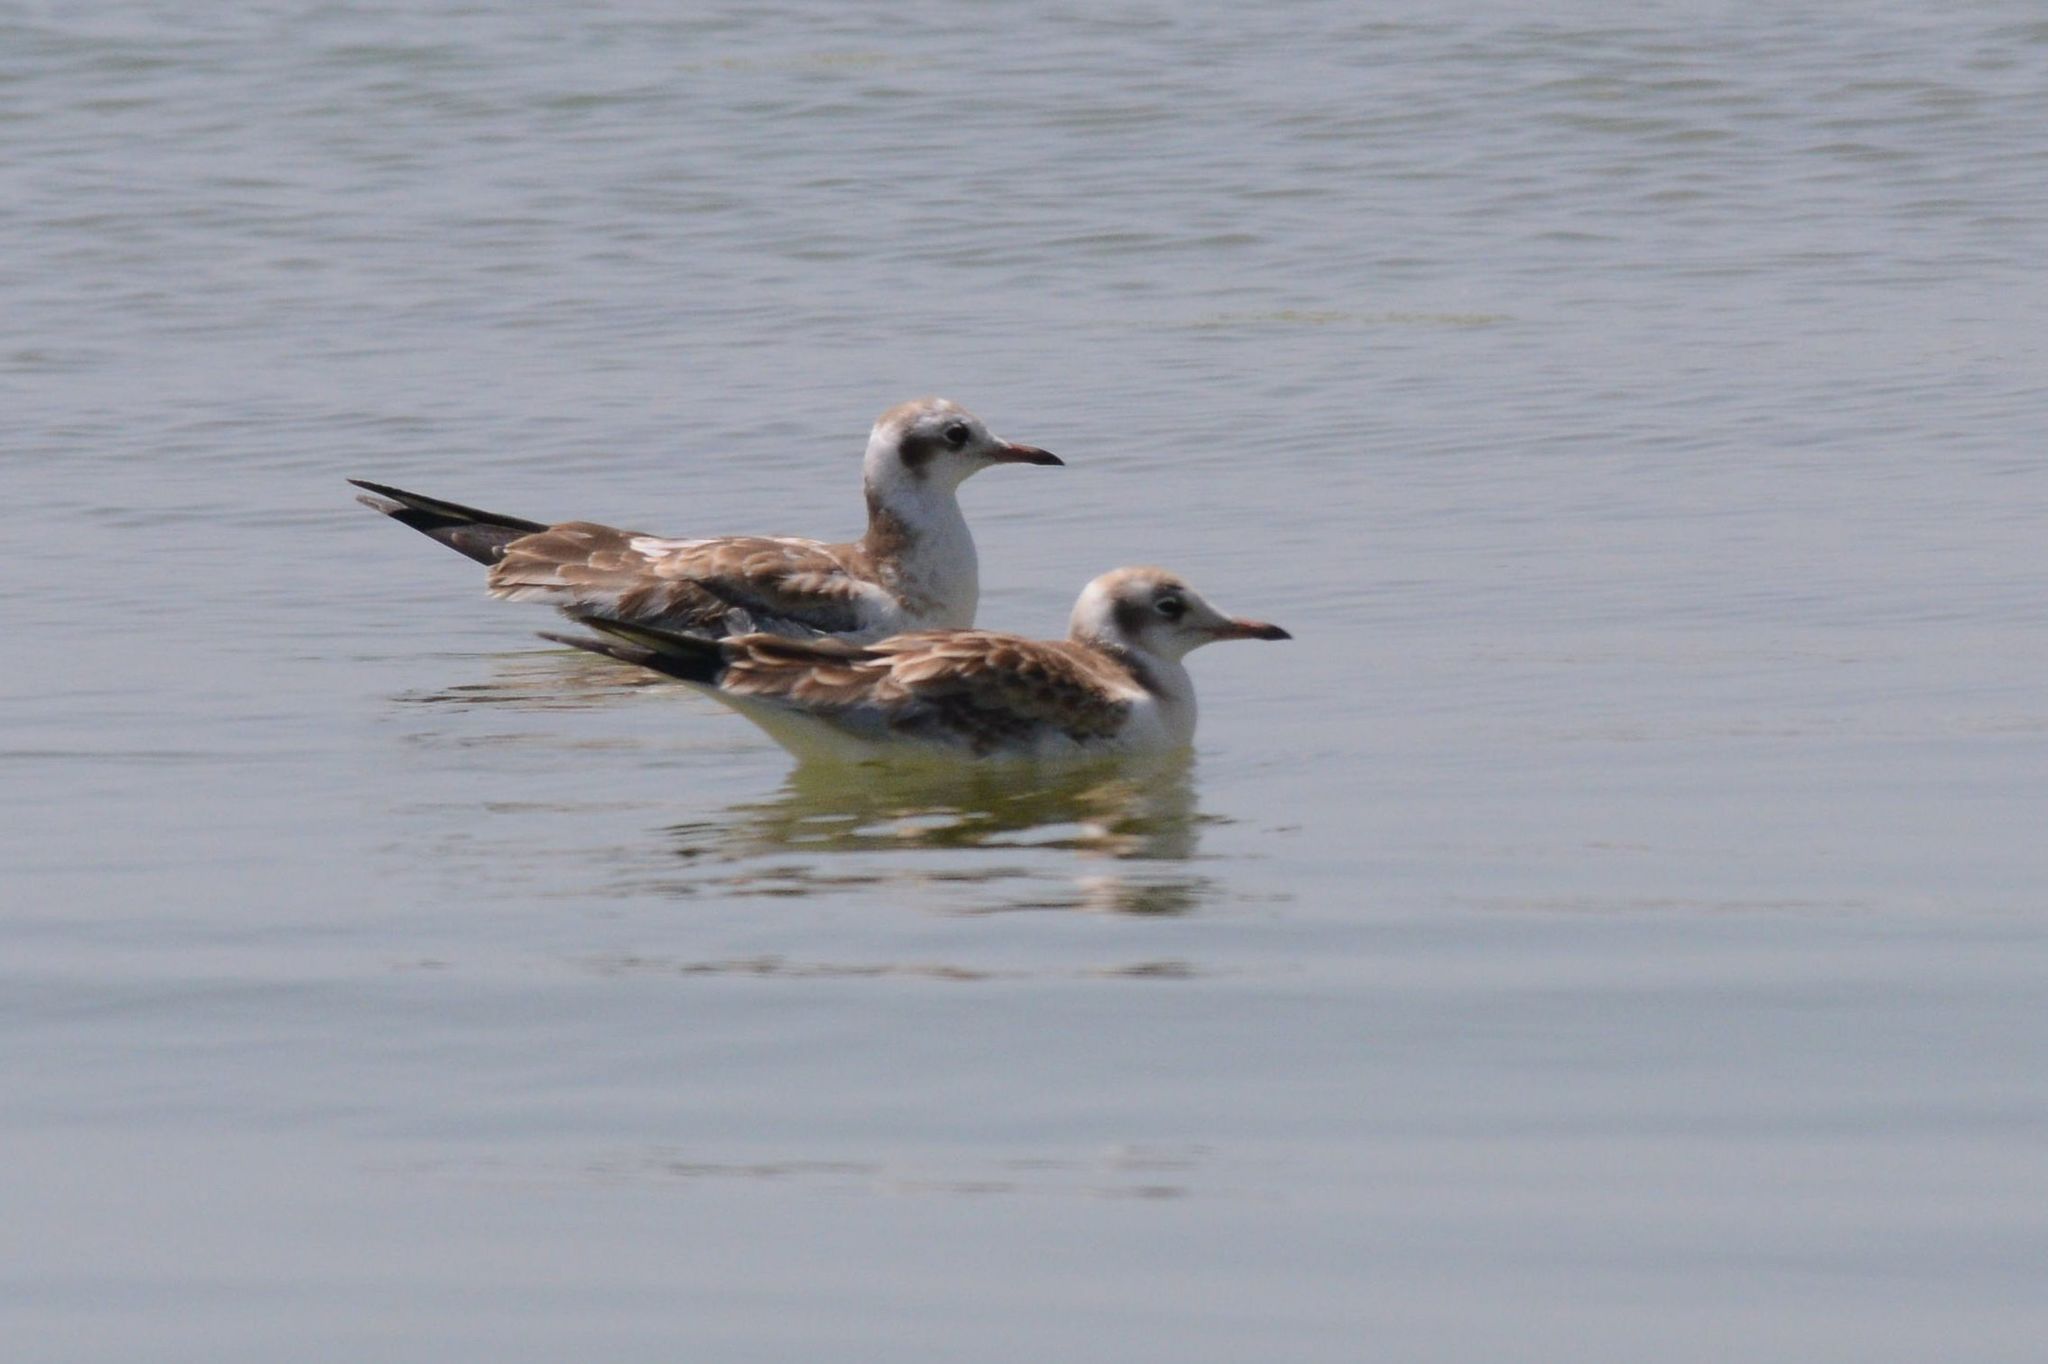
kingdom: Animalia
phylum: Chordata
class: Aves
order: Charadriiformes
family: Laridae
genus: Chroicocephalus
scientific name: Chroicocephalus ridibundus
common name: Black-headed gull
